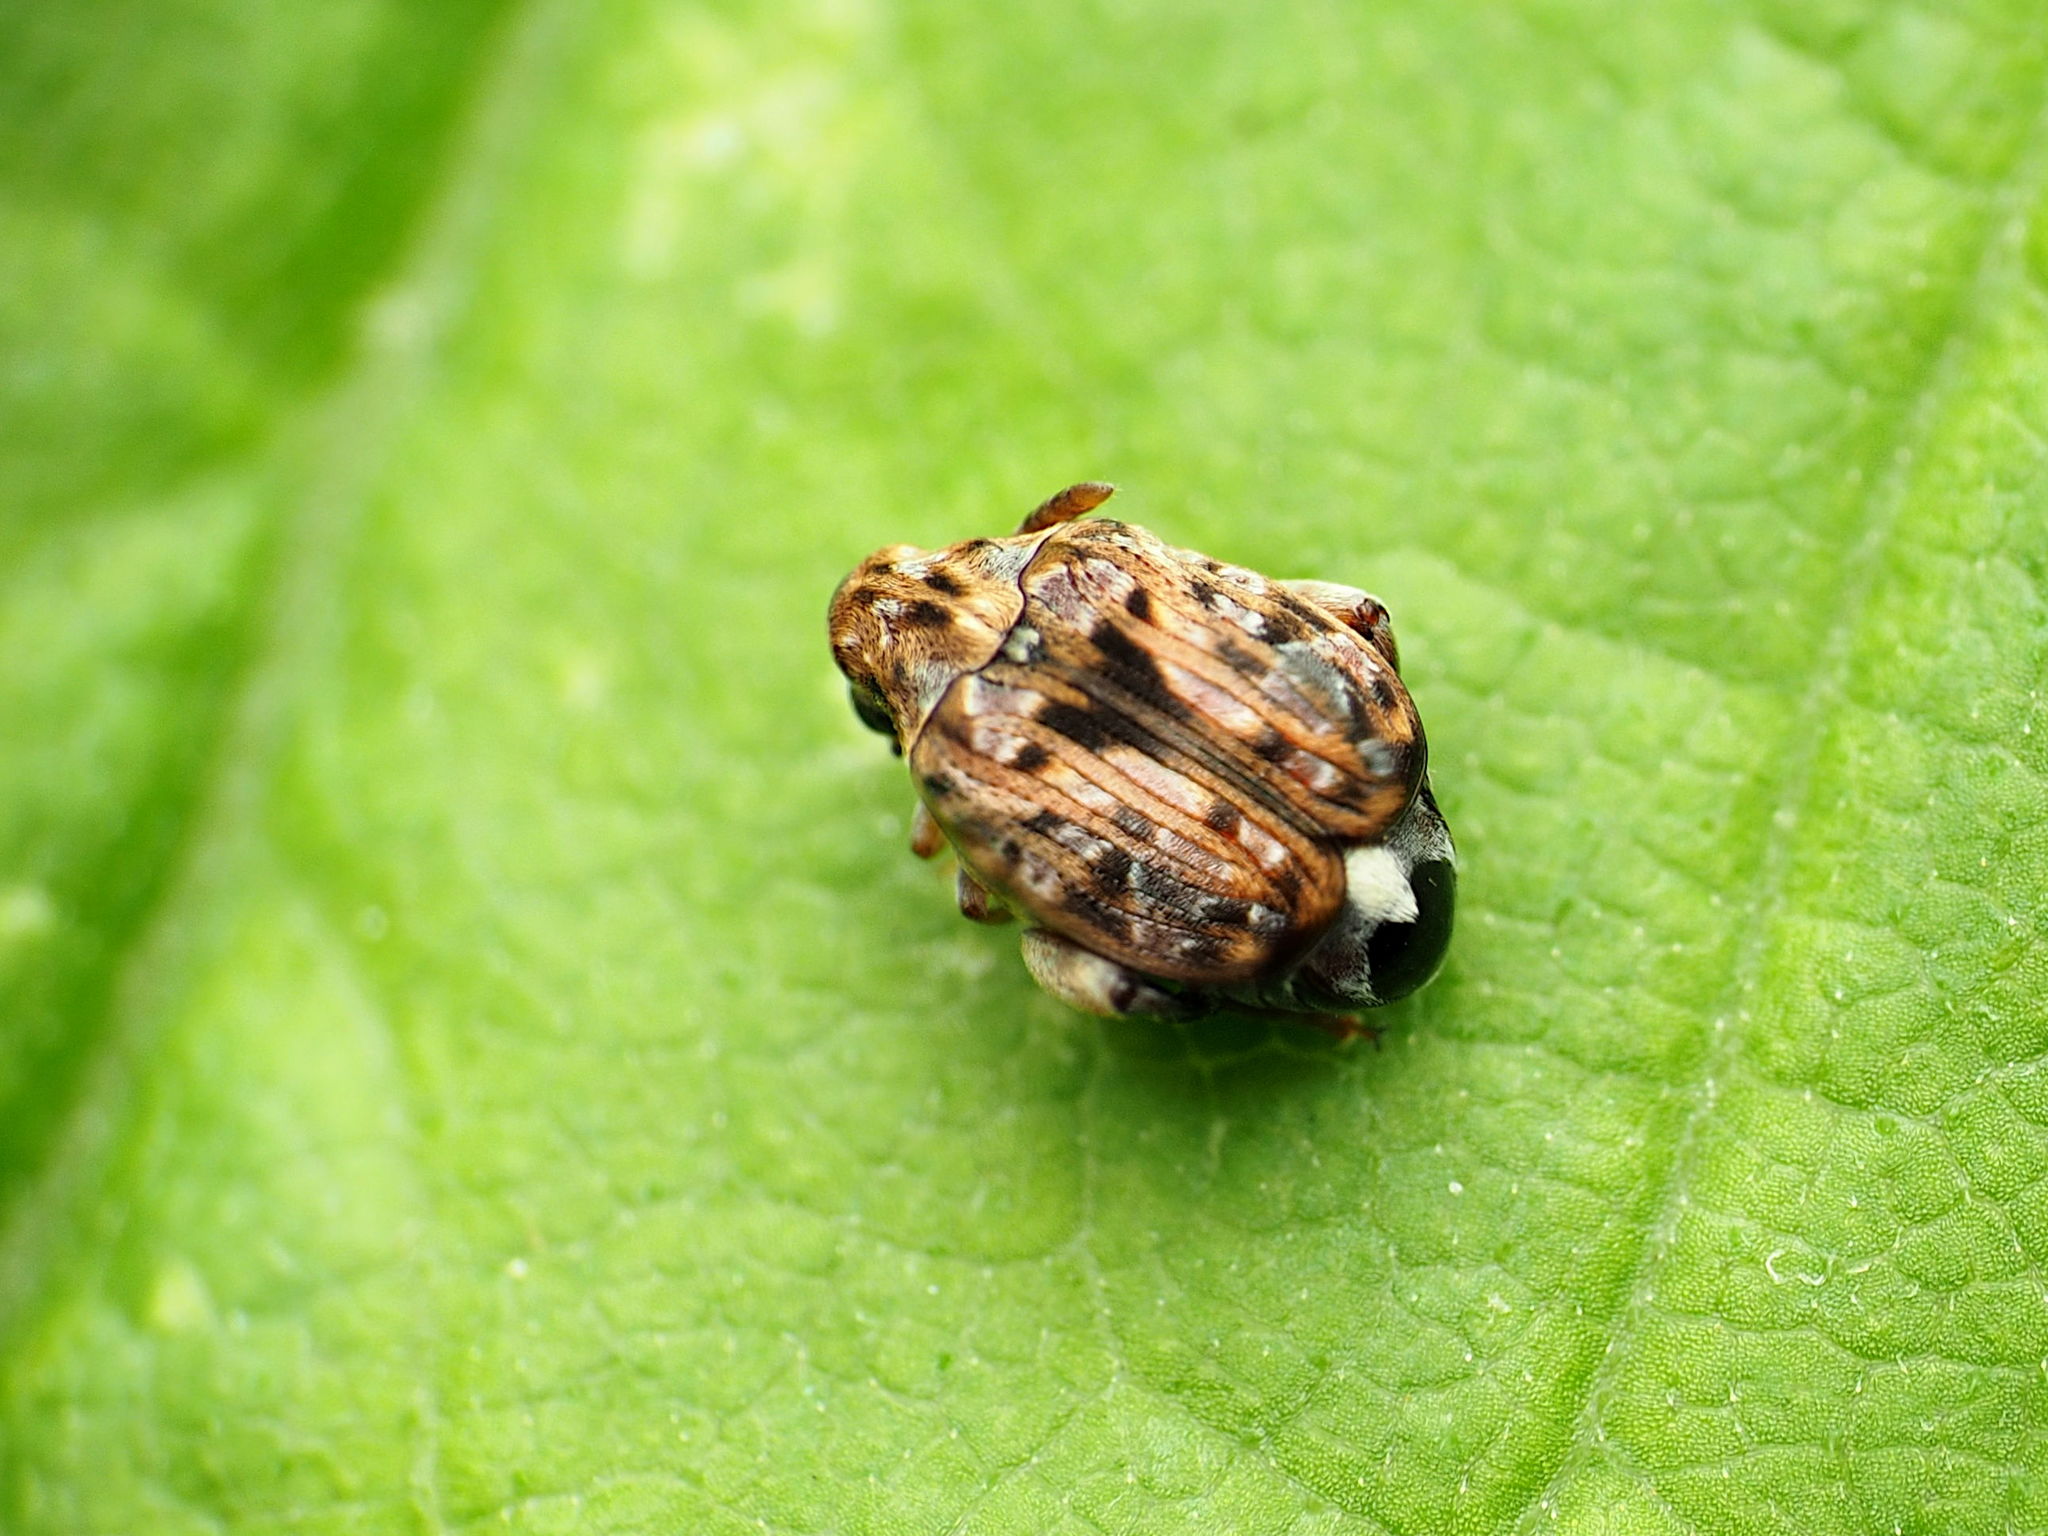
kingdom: Animalia
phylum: Arthropoda
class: Insecta
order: Coleoptera
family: Chrysomelidae
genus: Gibbobruchus
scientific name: Gibbobruchus mimus
